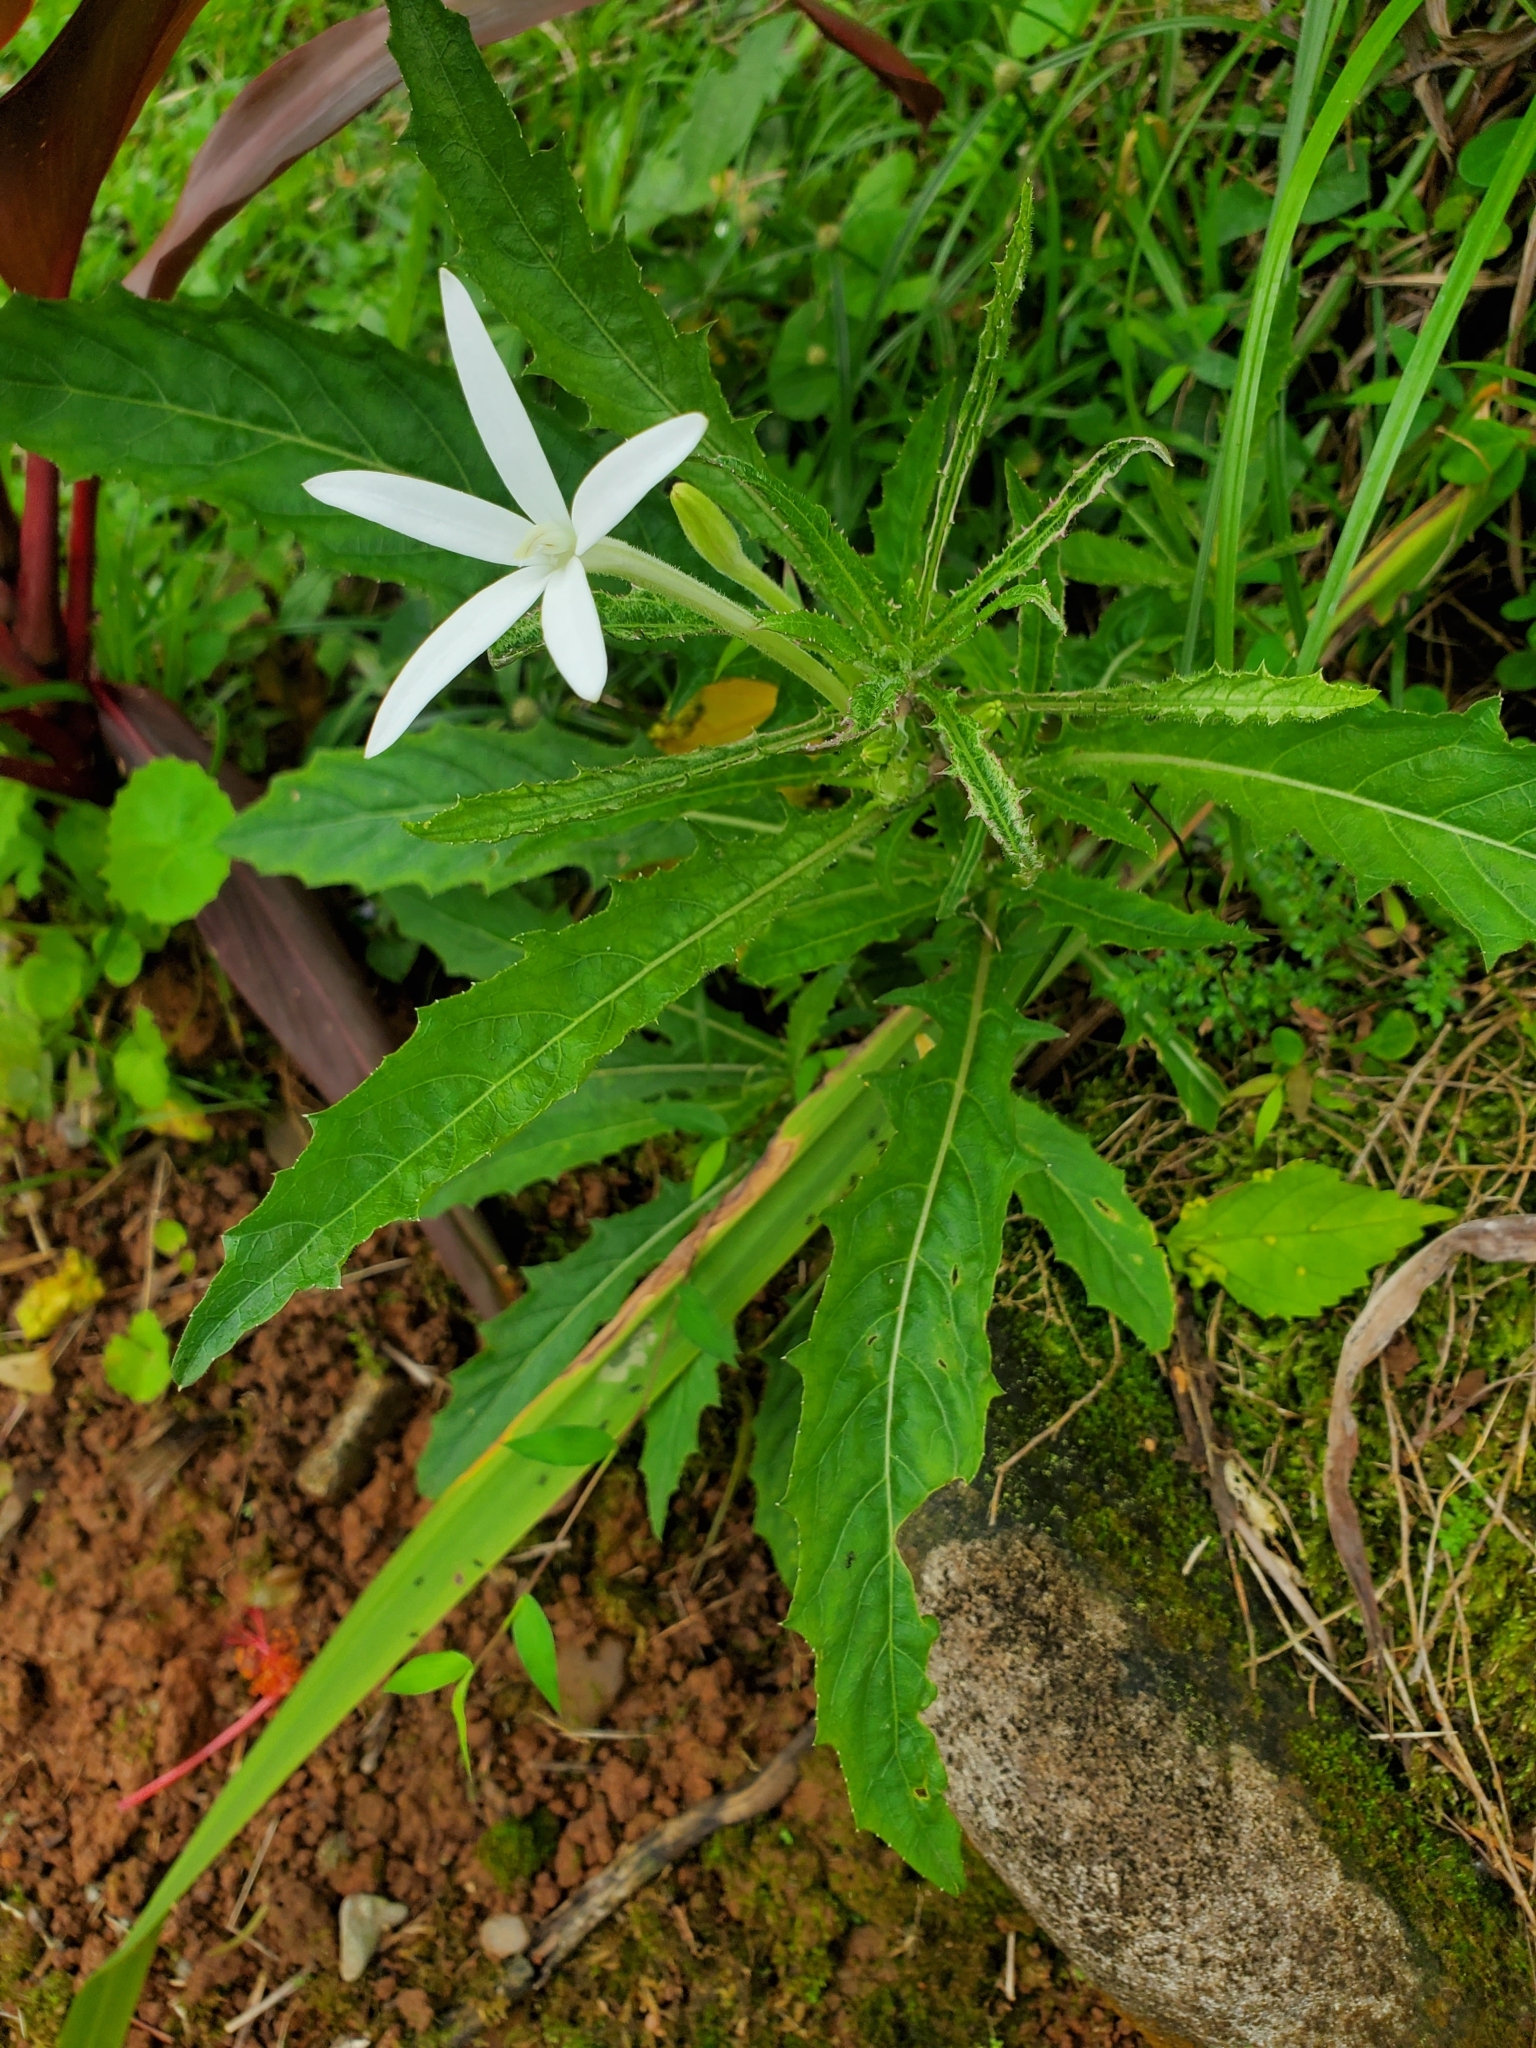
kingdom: Plantae
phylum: Tracheophyta
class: Magnoliopsida
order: Asterales
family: Campanulaceae
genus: Hippobroma
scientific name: Hippobroma longiflora
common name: Madamfate
